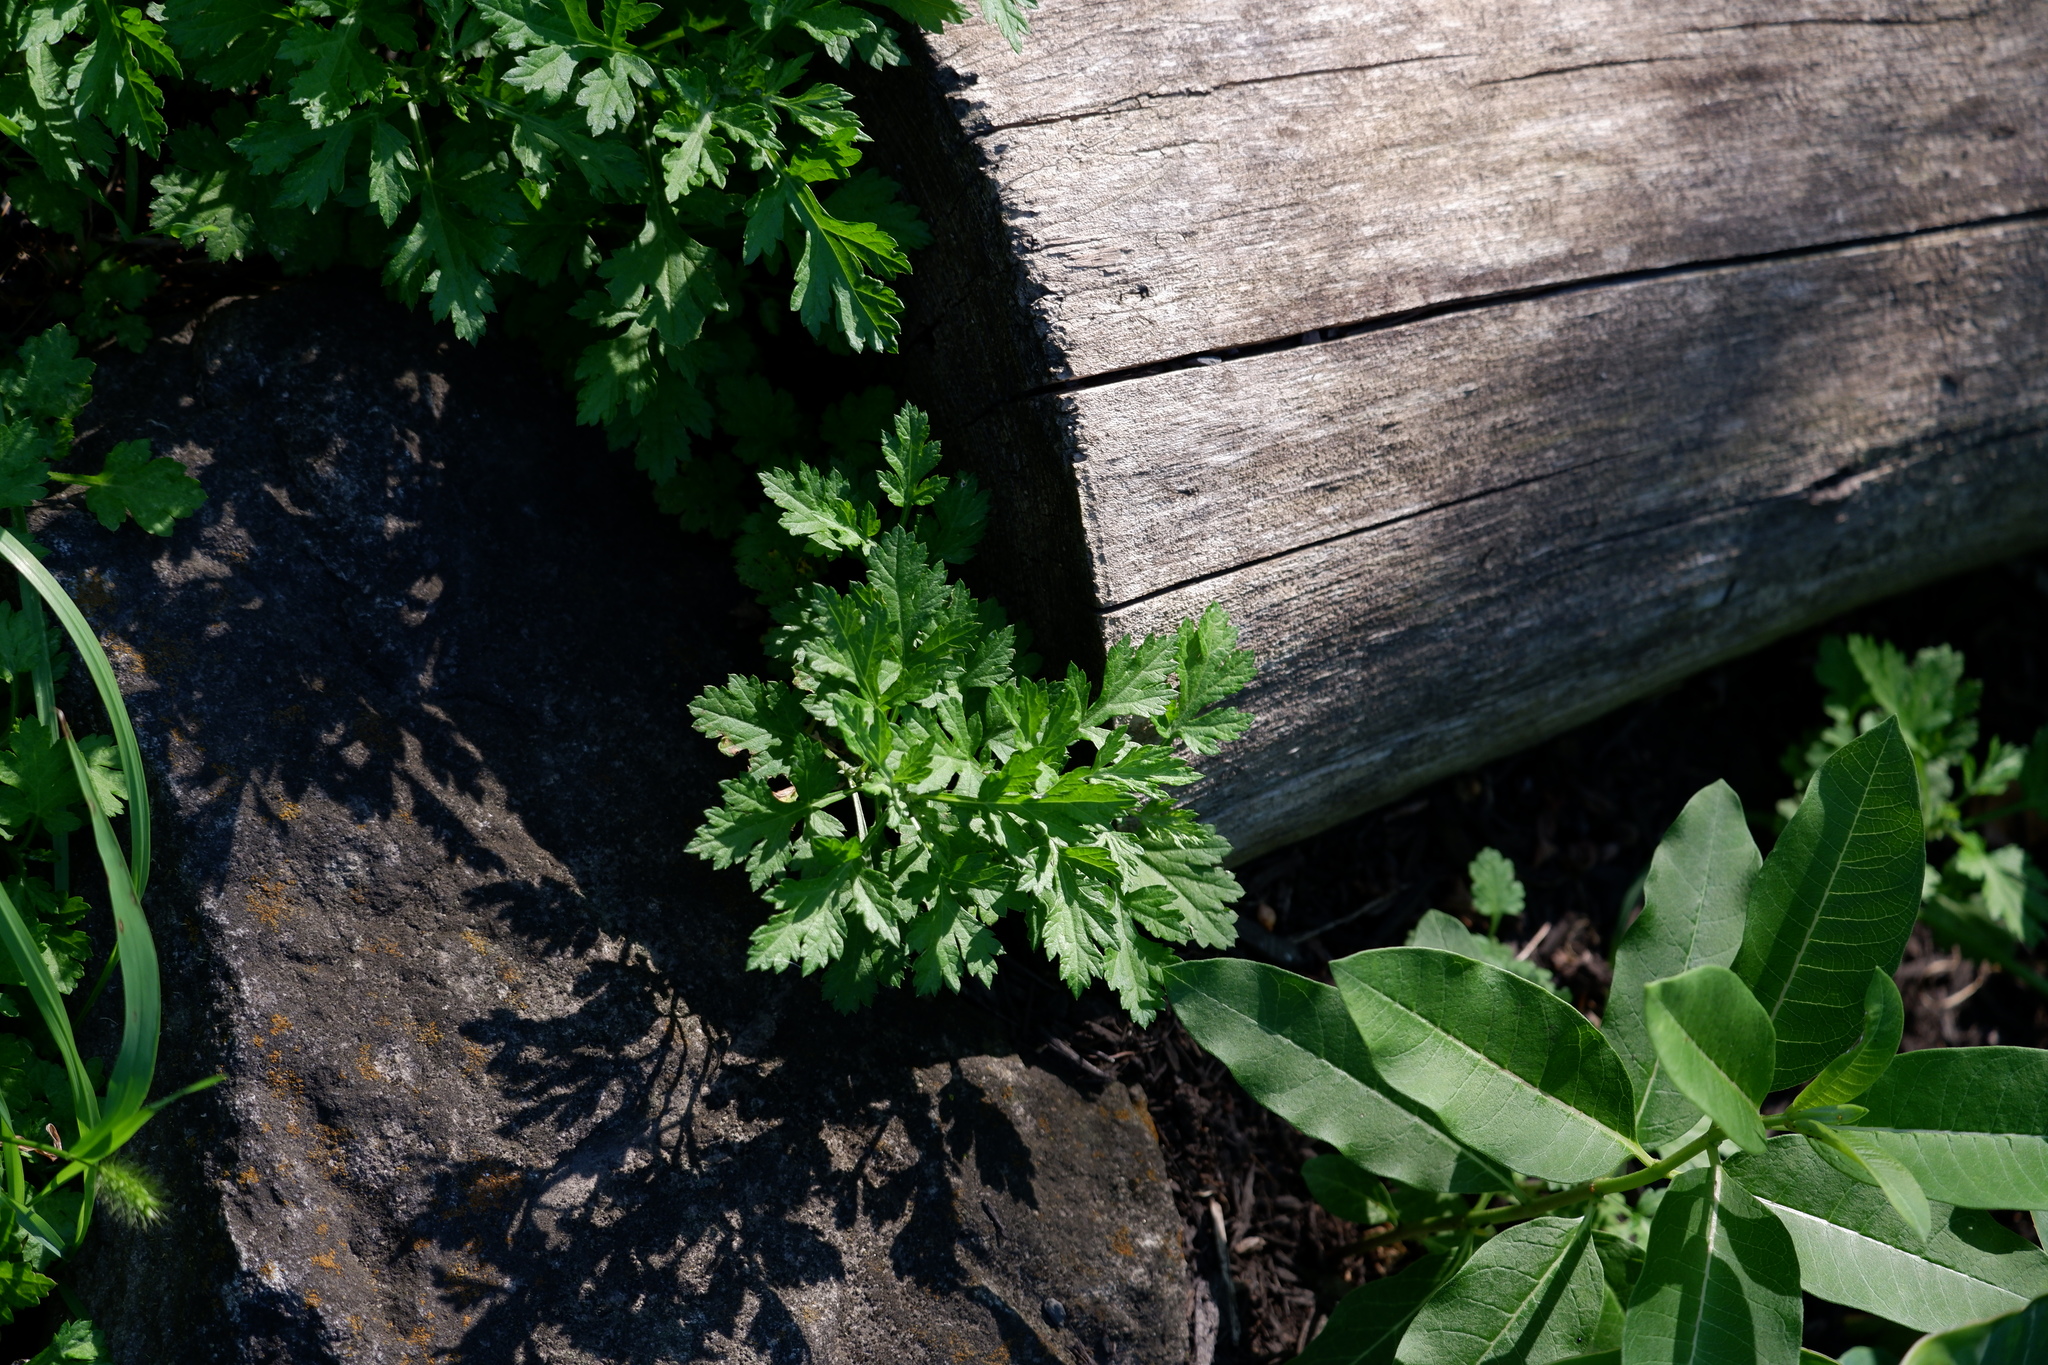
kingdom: Plantae
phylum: Tracheophyta
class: Magnoliopsida
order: Asterales
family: Asteraceae
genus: Artemisia
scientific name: Artemisia vulgaris
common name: Mugwort
